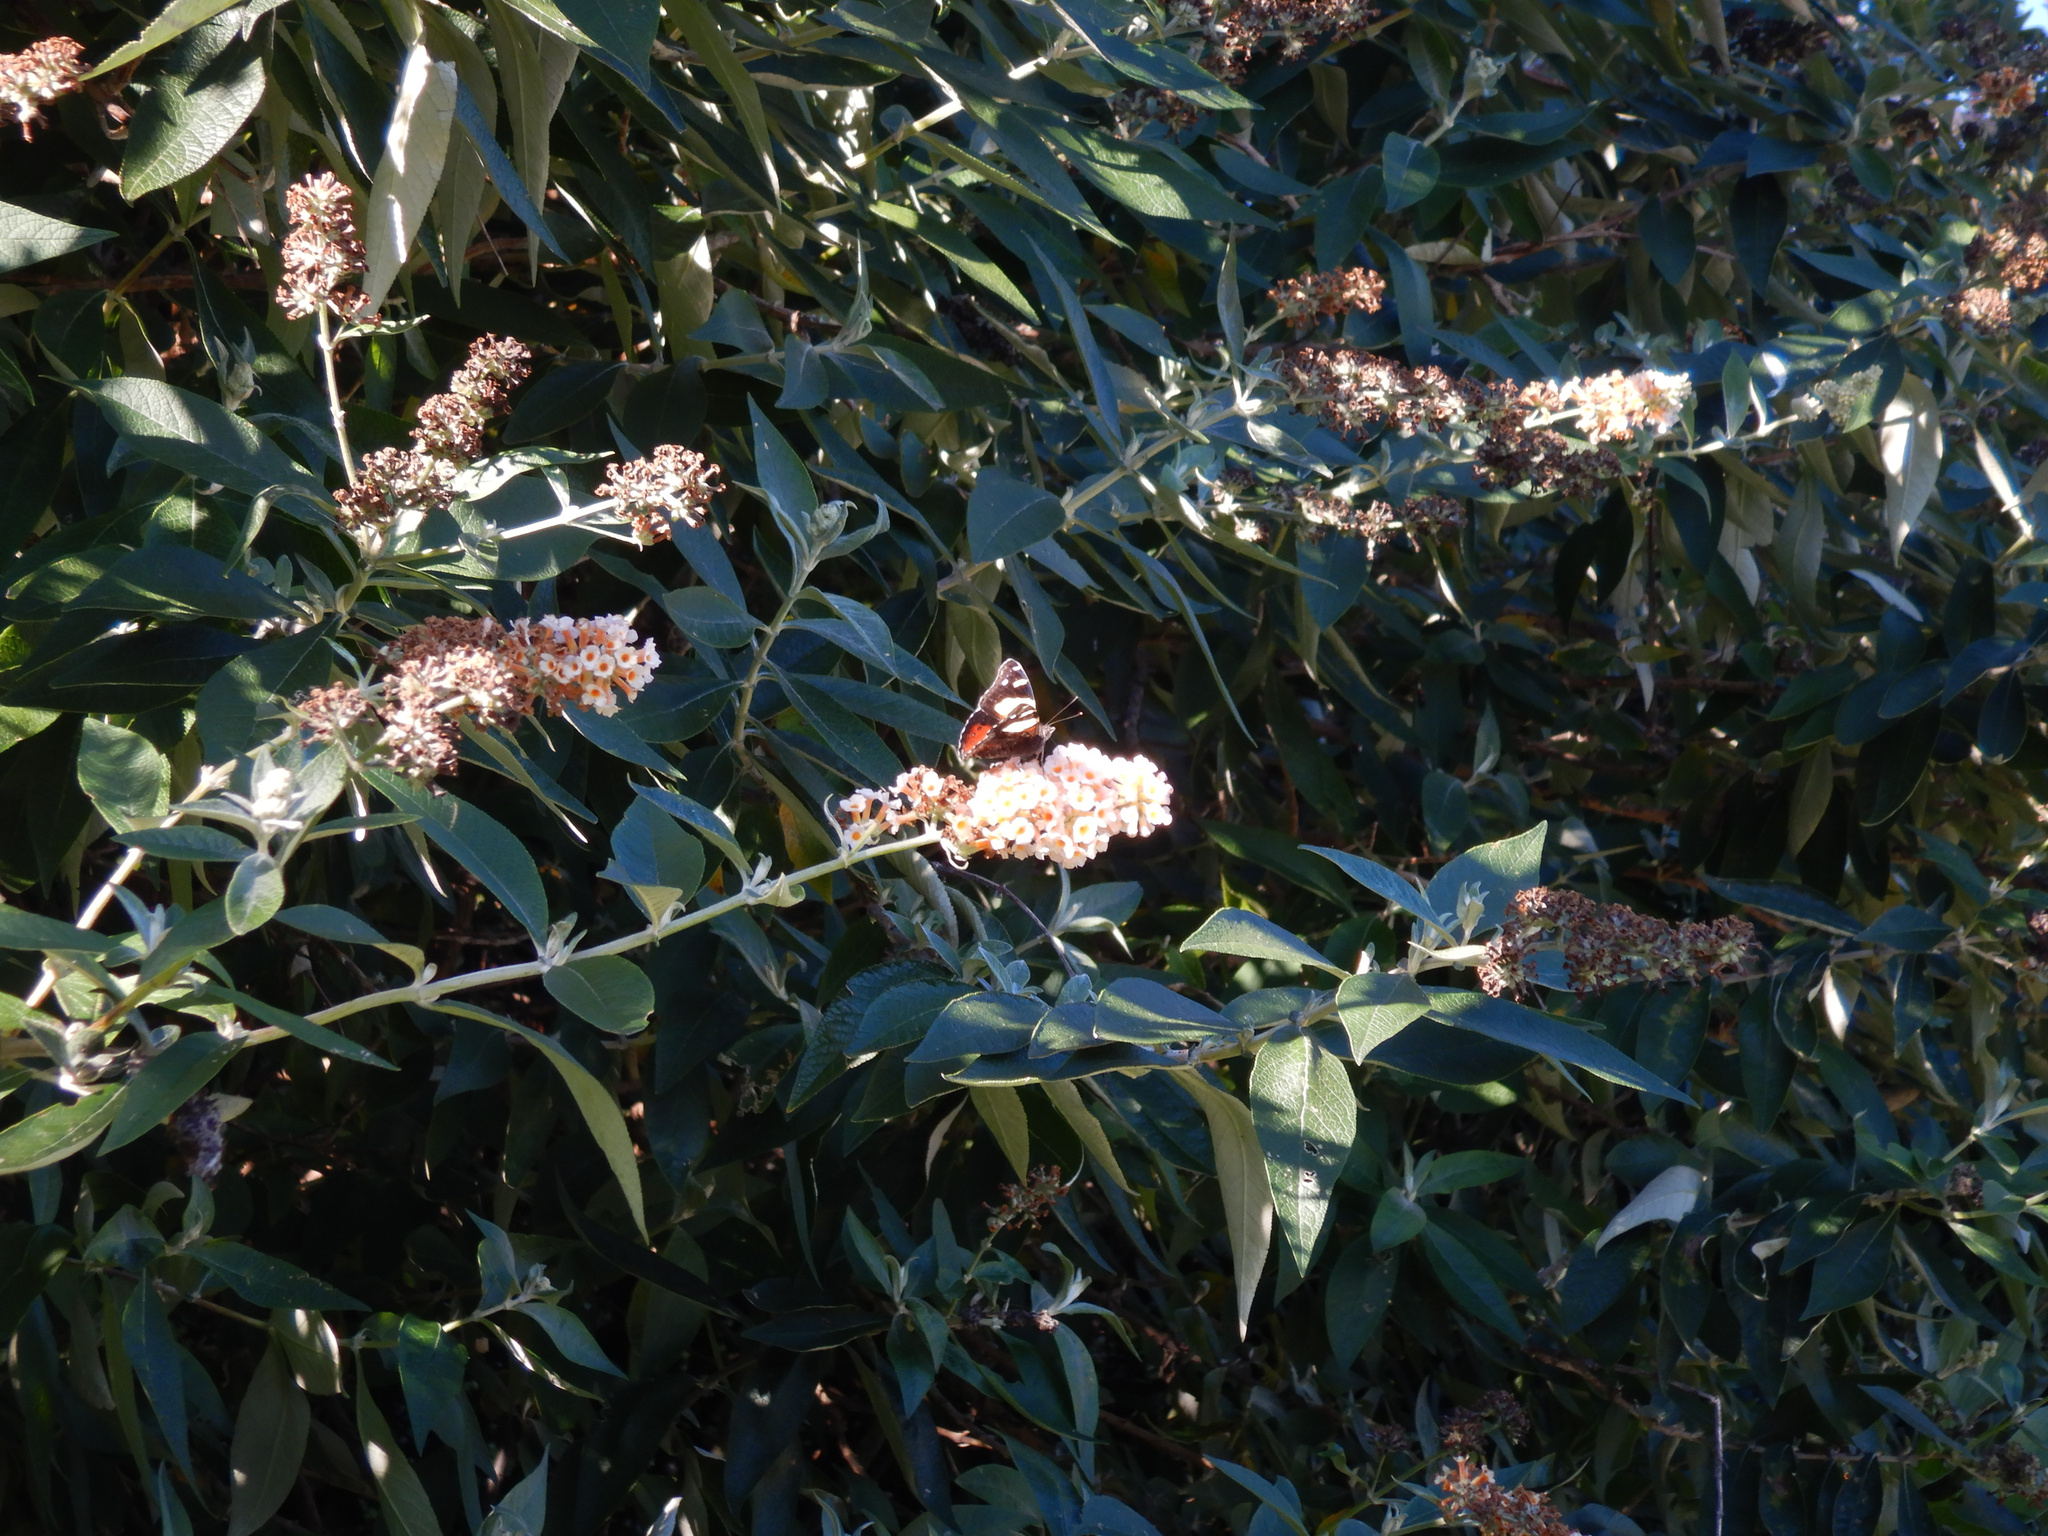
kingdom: Animalia
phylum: Arthropoda
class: Insecta
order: Lepidoptera
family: Nymphalidae
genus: Vanessa
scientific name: Vanessa itea
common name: Yellow admiral
